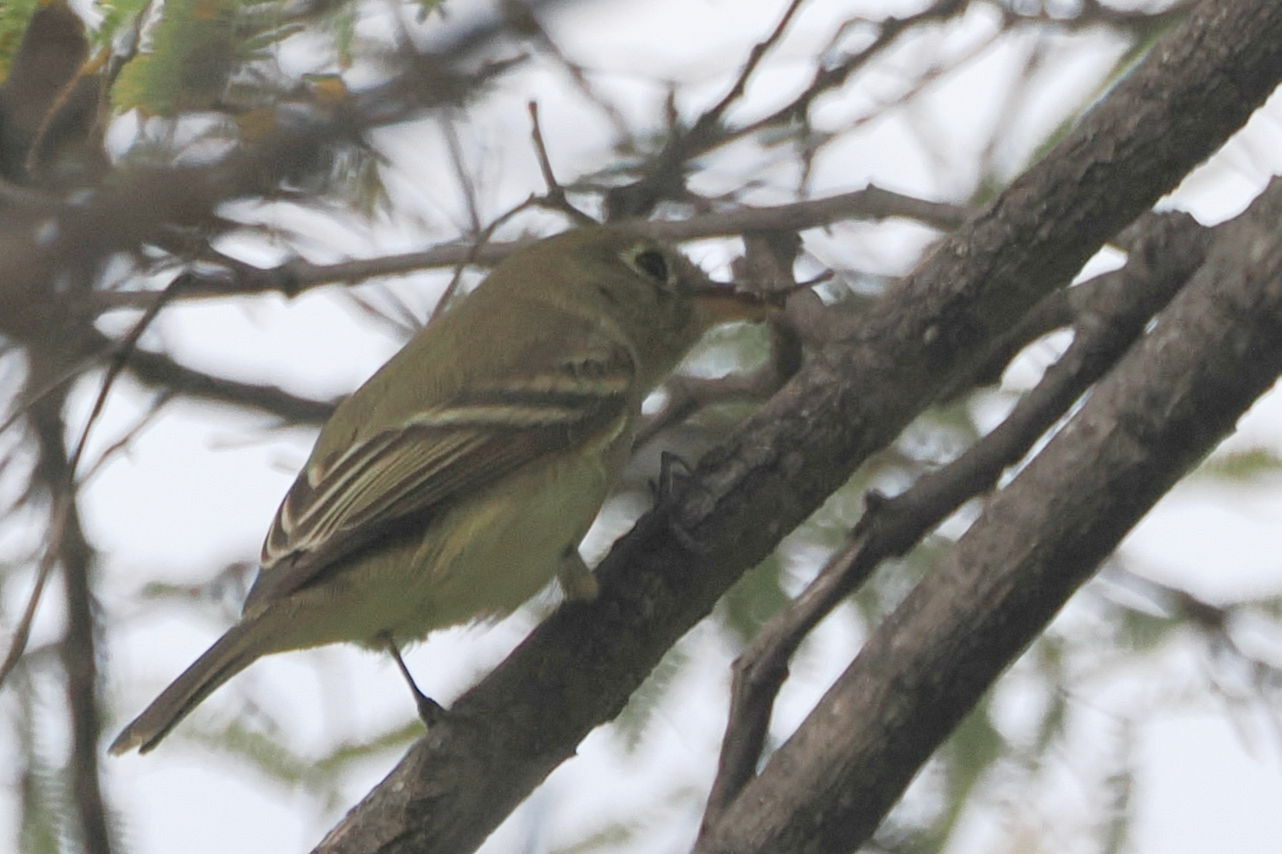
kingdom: Animalia
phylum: Chordata
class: Aves
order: Passeriformes
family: Vireonidae
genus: Vireo
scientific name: Vireo huttoni
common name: Hutton's vireo
